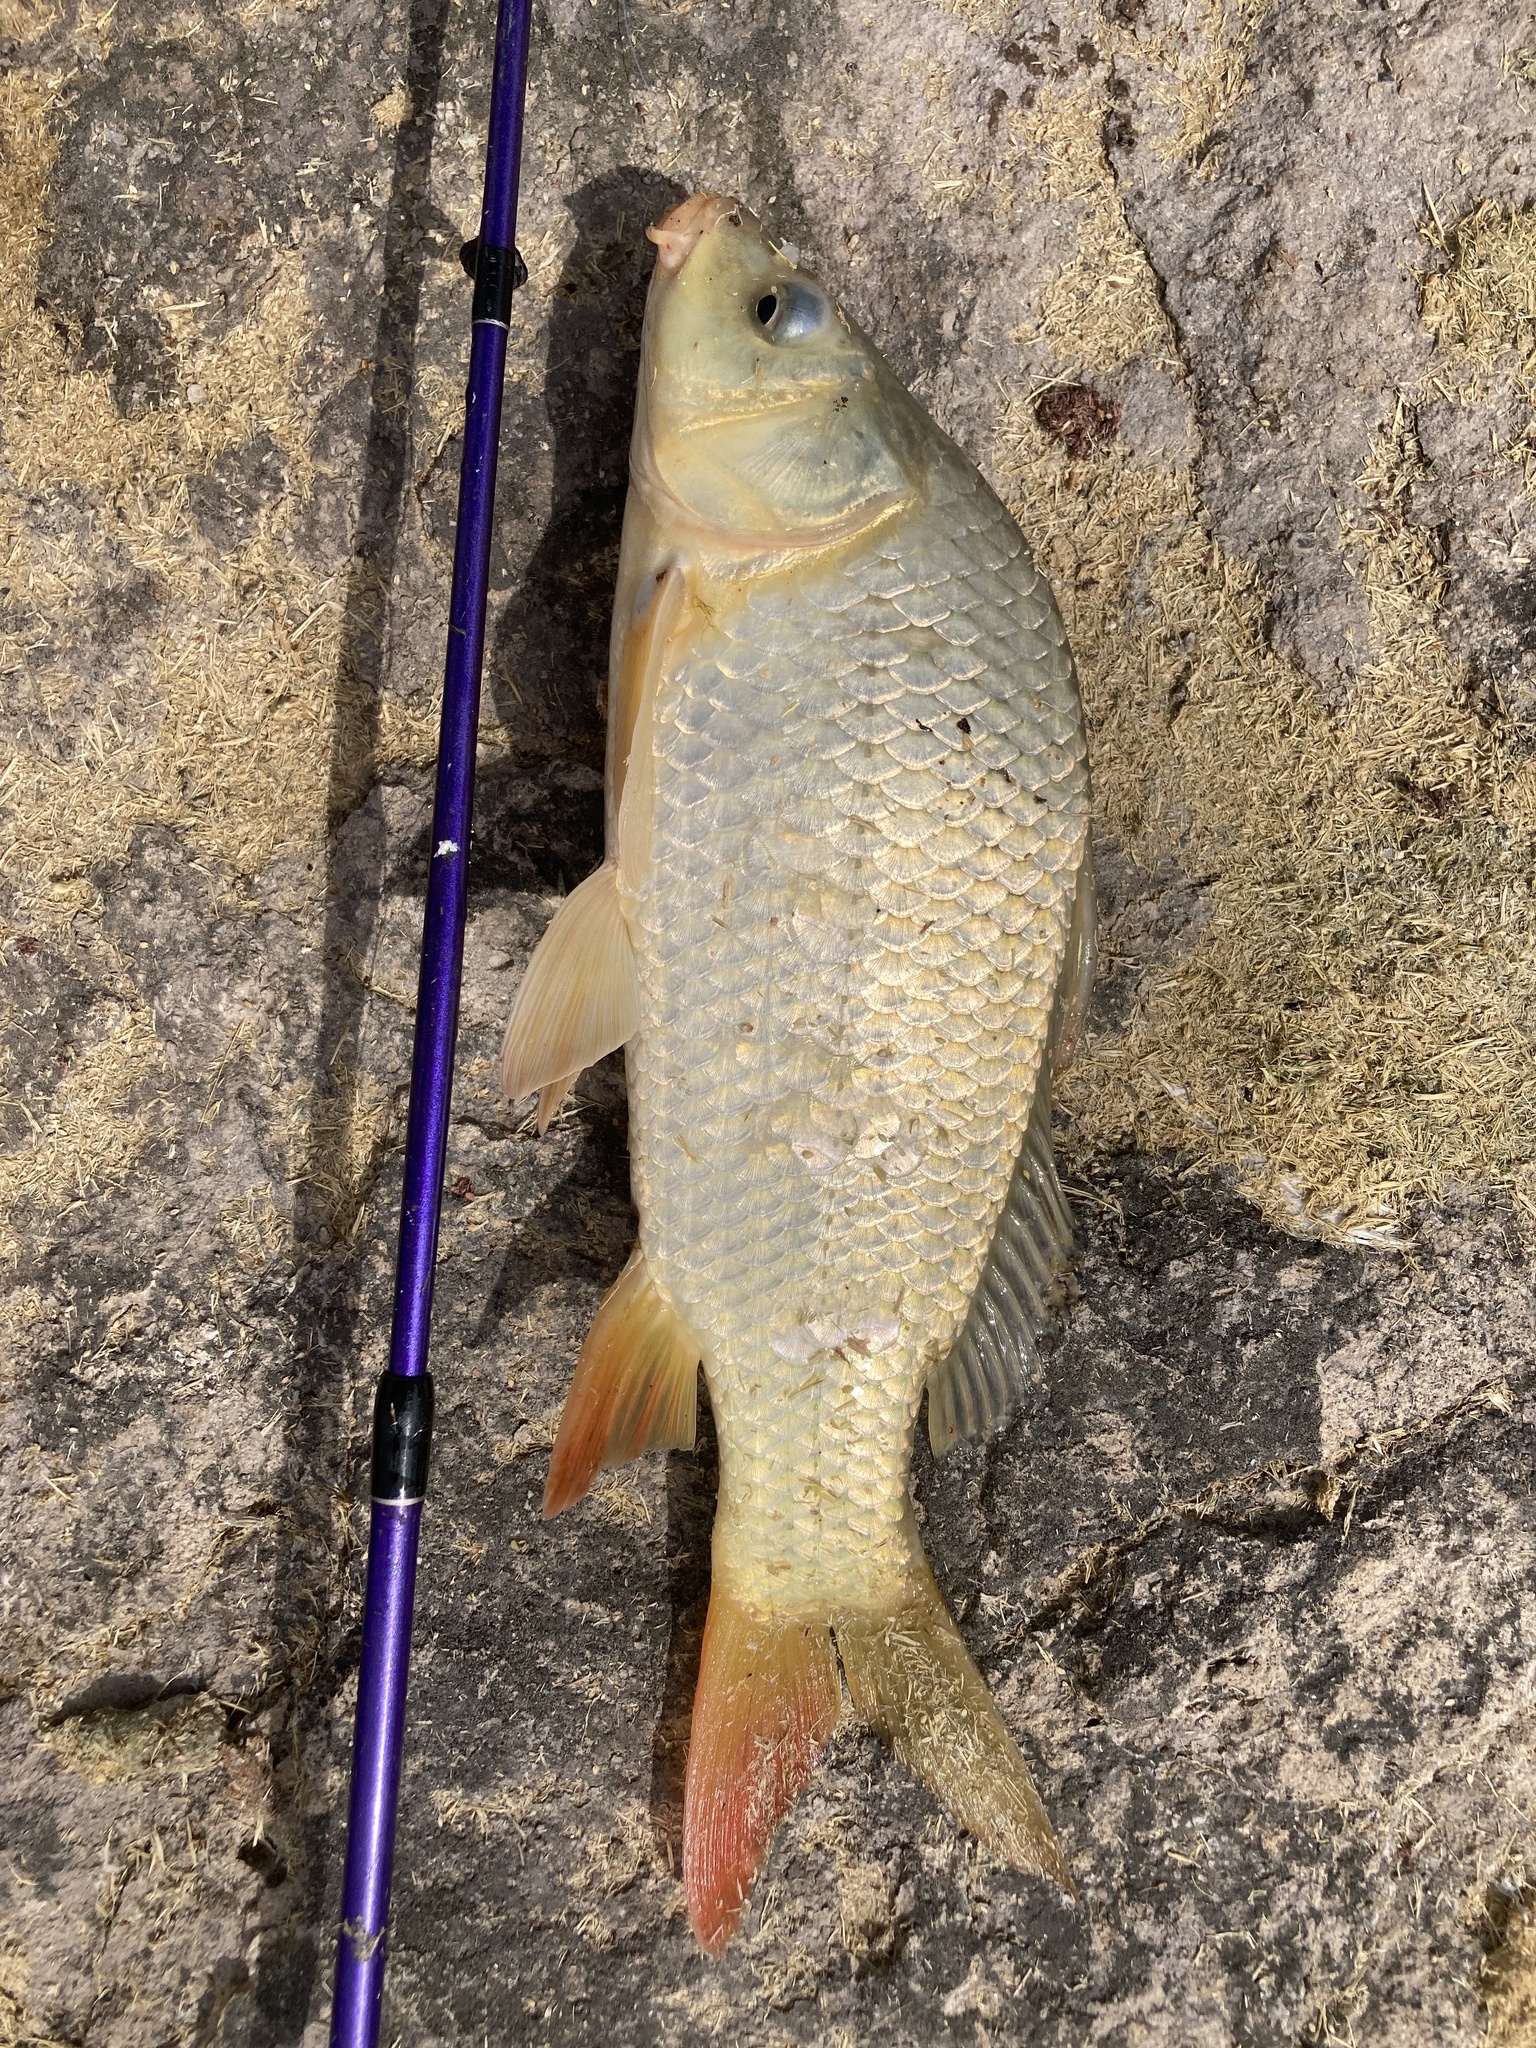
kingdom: Animalia
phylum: Chordata
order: Cypriniformes
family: Cyprinidae
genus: Cyprinus
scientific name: Cyprinus carpio
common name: Common carp
